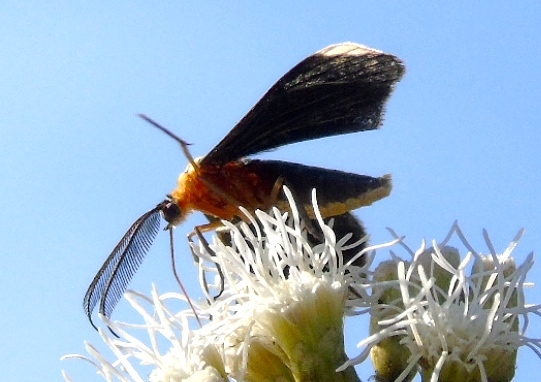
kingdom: Animalia
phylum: Arthropoda
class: Insecta
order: Lepidoptera
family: Geometridae
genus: Melanchroia
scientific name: Melanchroia chephise
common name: White-tipped black
